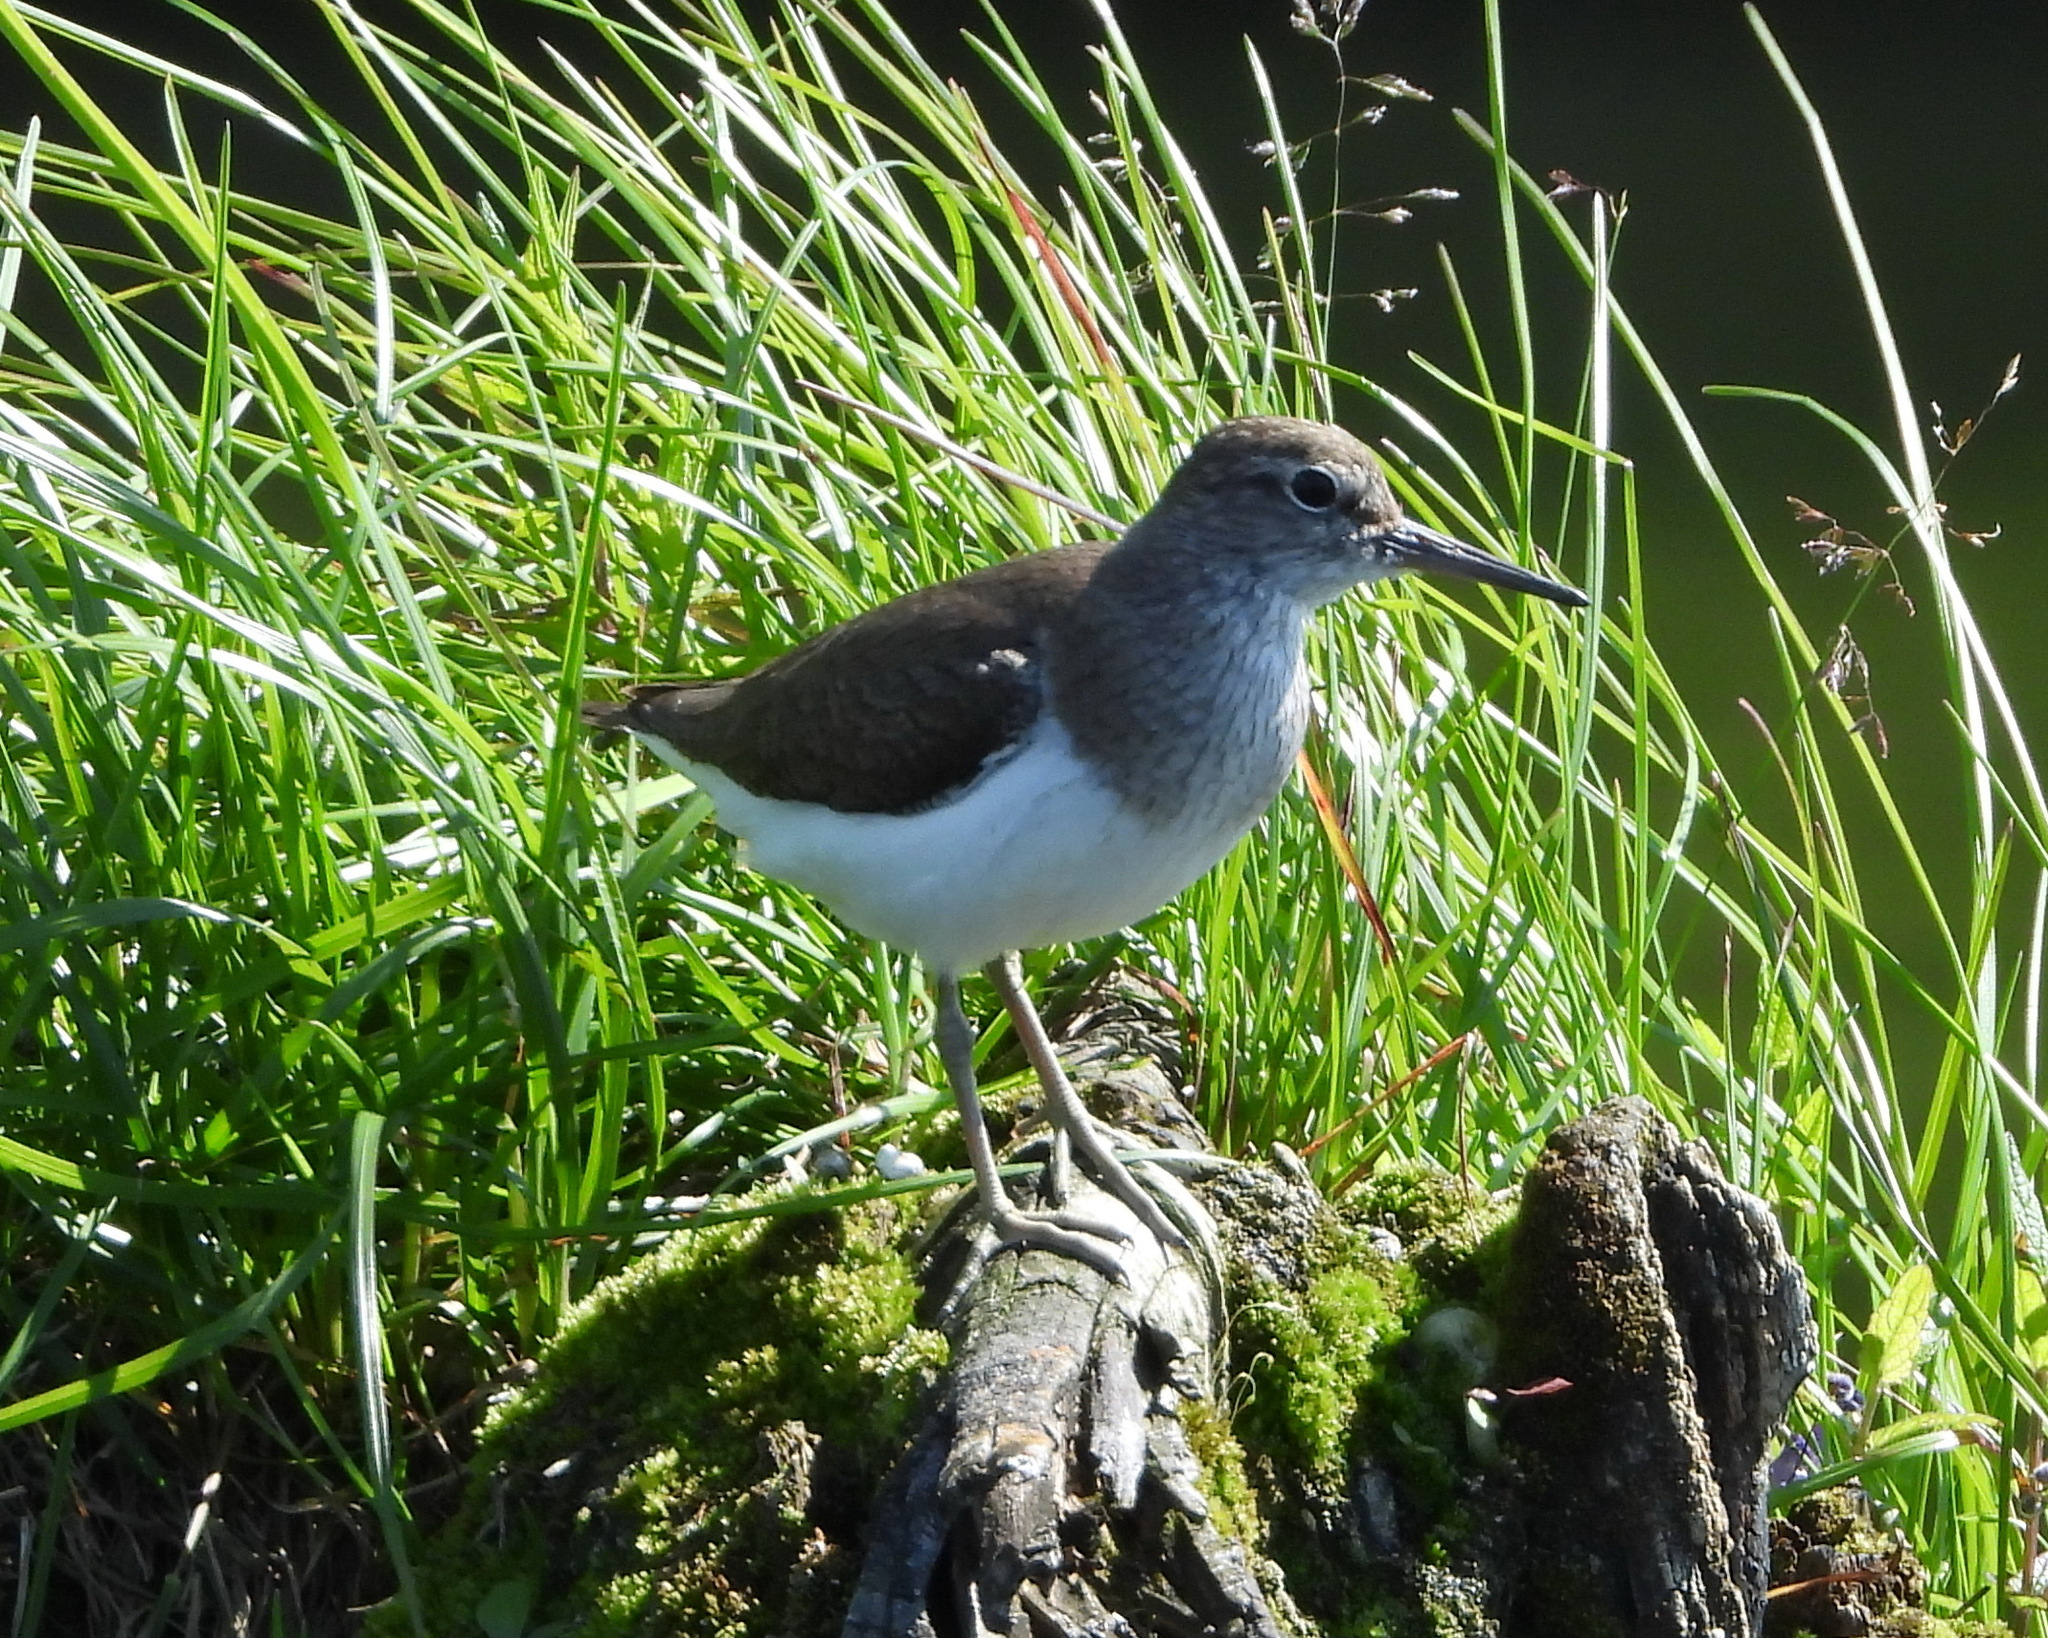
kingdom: Animalia
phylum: Chordata
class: Aves
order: Charadriiformes
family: Scolopacidae
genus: Actitis
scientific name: Actitis hypoleucos
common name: Common sandpiper
